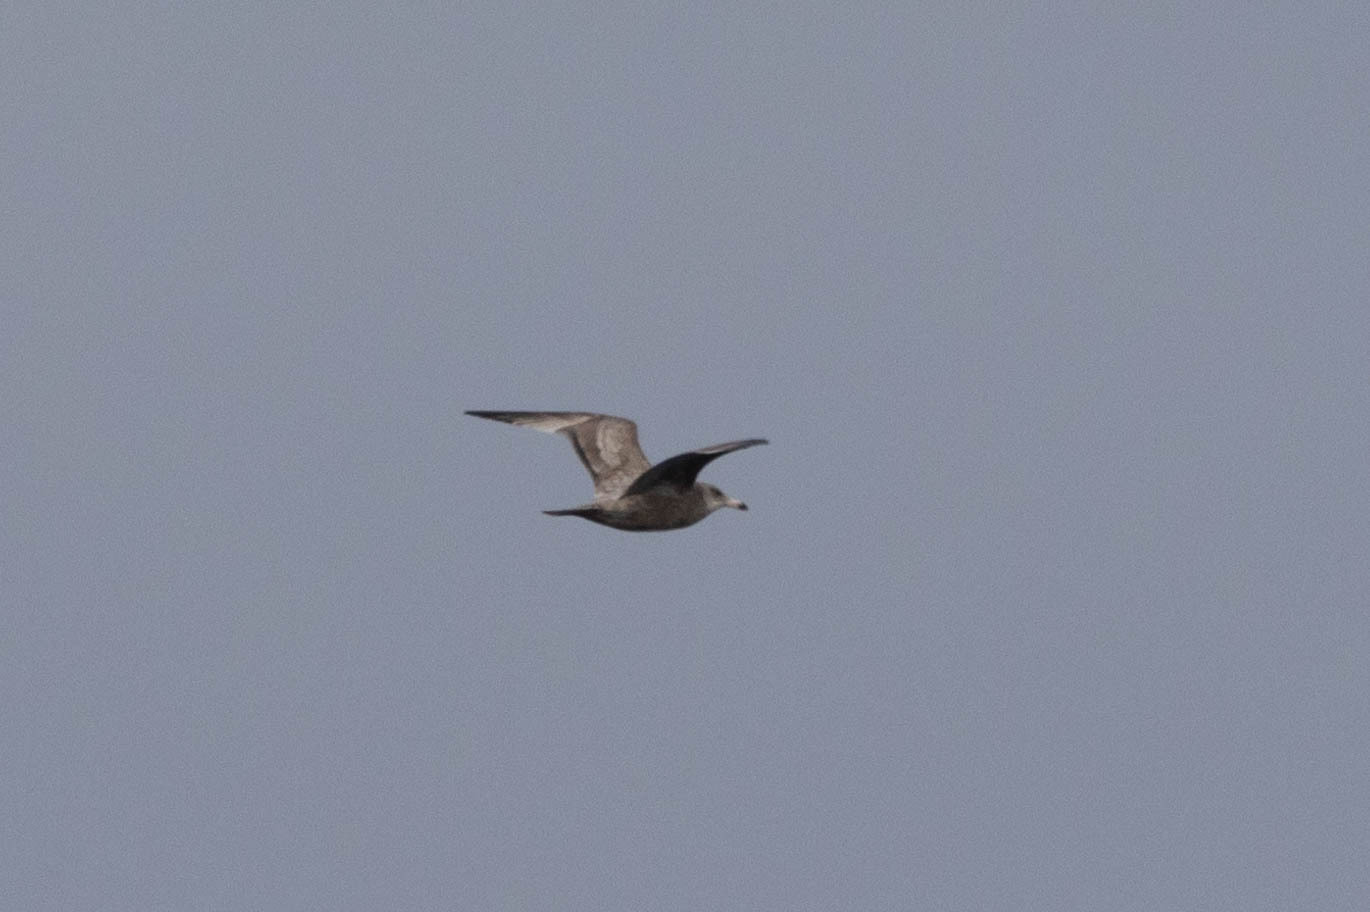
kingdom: Animalia
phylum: Chordata
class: Aves
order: Charadriiformes
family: Laridae
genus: Larus
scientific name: Larus argentatus
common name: Herring gull
